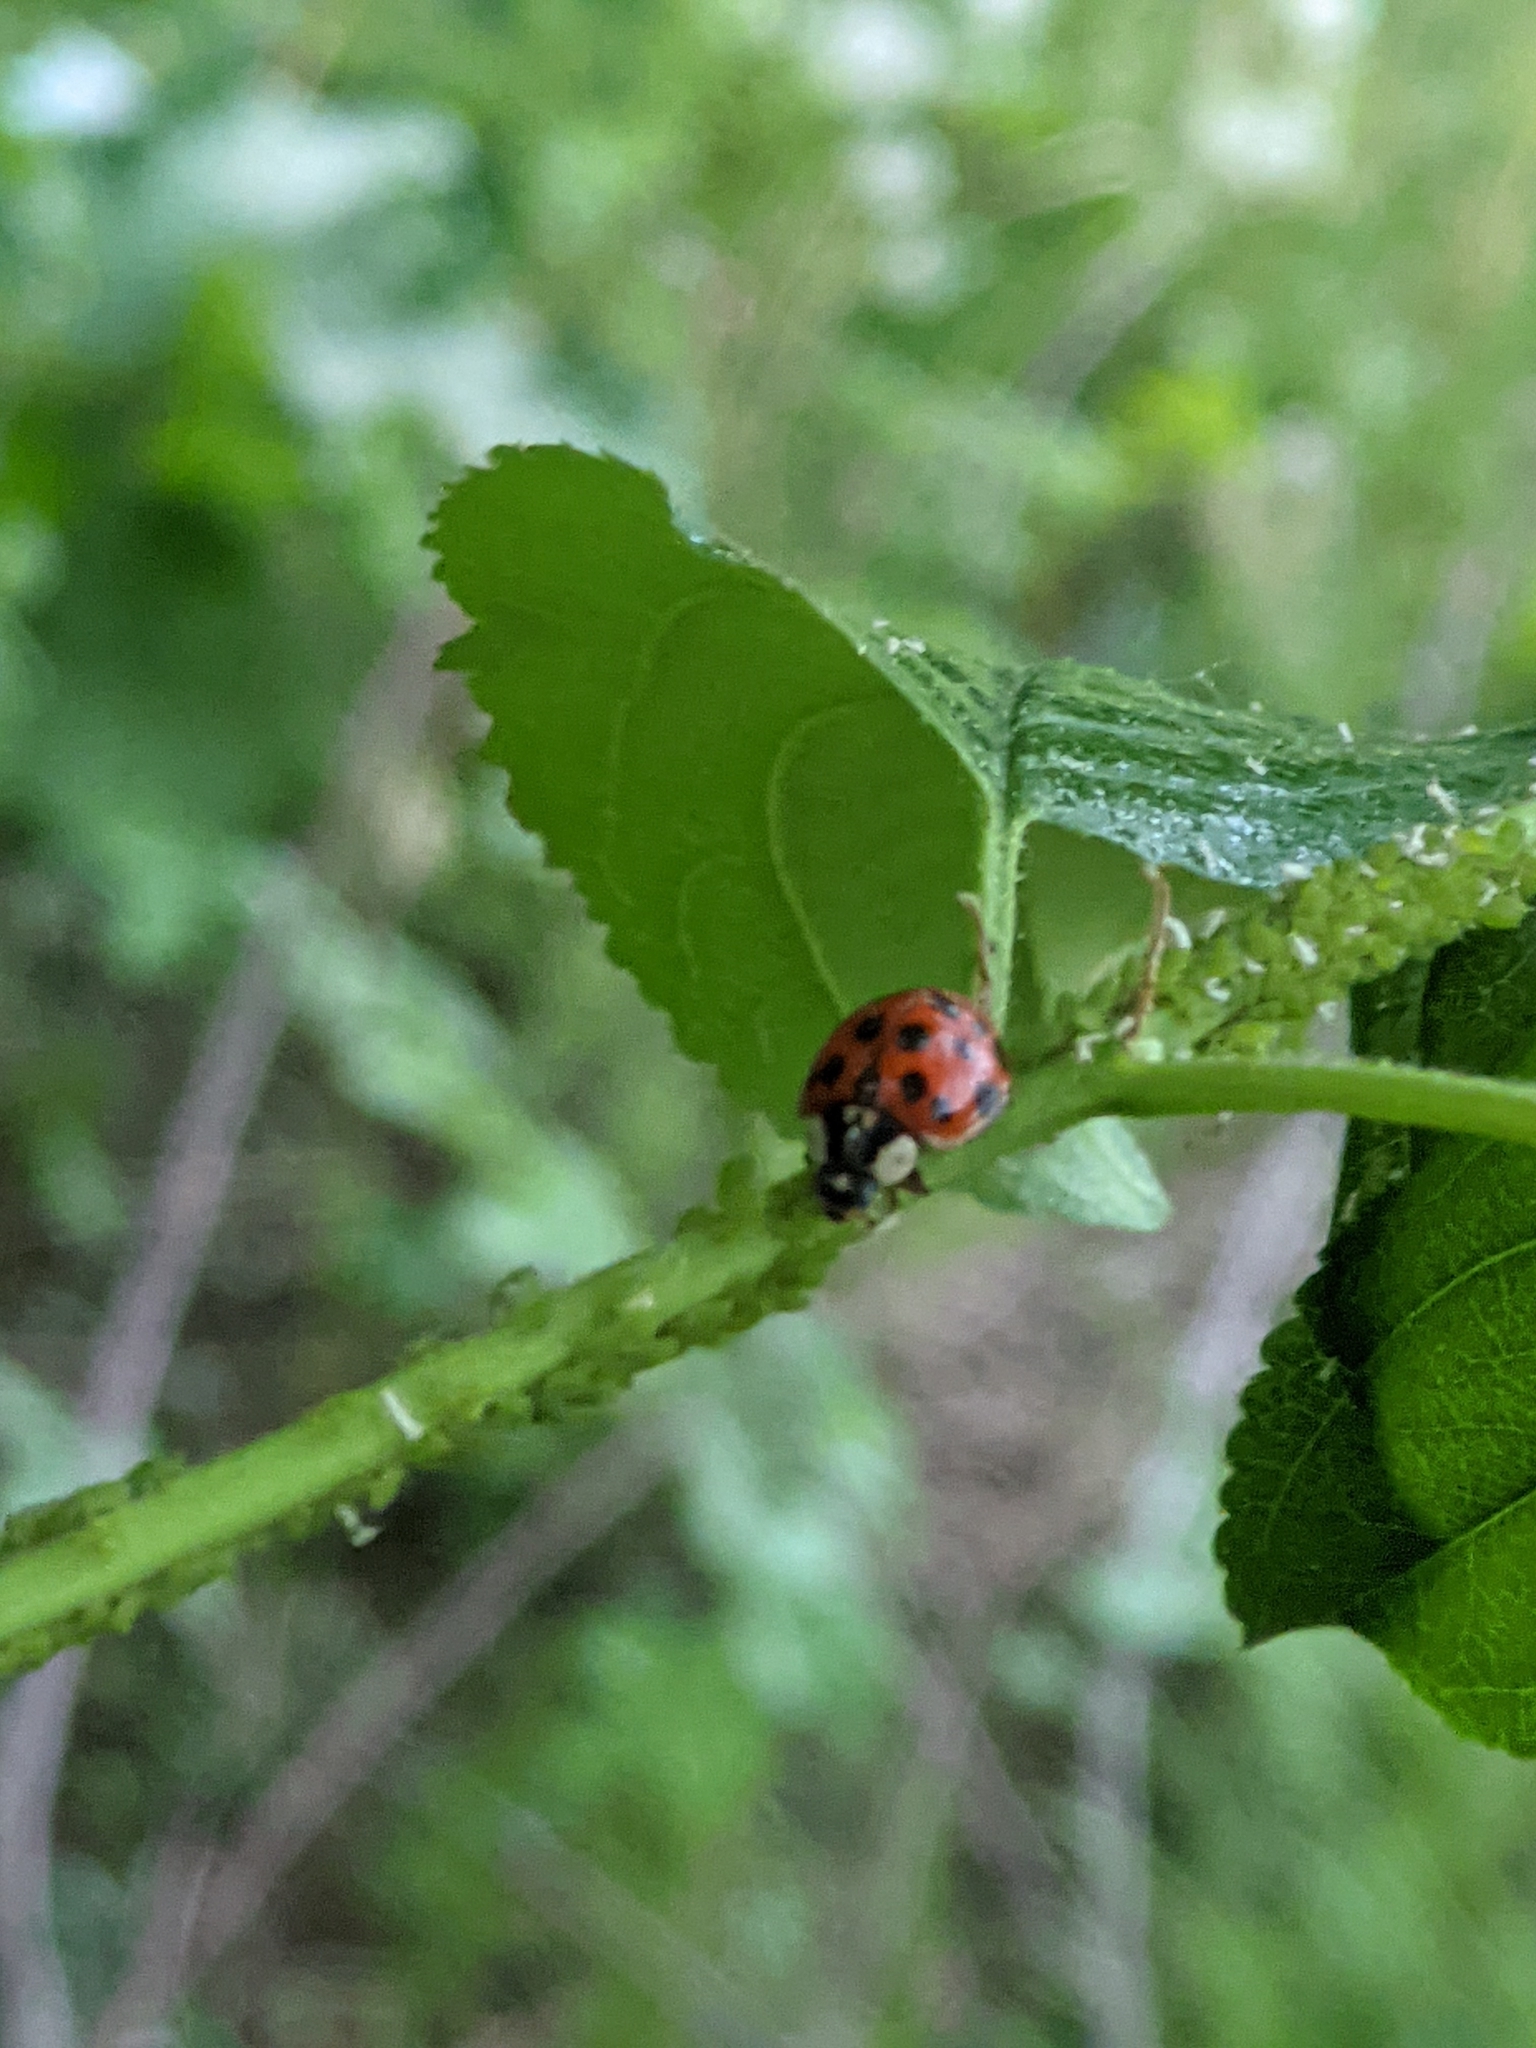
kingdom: Animalia
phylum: Arthropoda
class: Insecta
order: Coleoptera
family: Coccinellidae
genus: Harmonia
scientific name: Harmonia axyridis
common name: Harlequin ladybird
